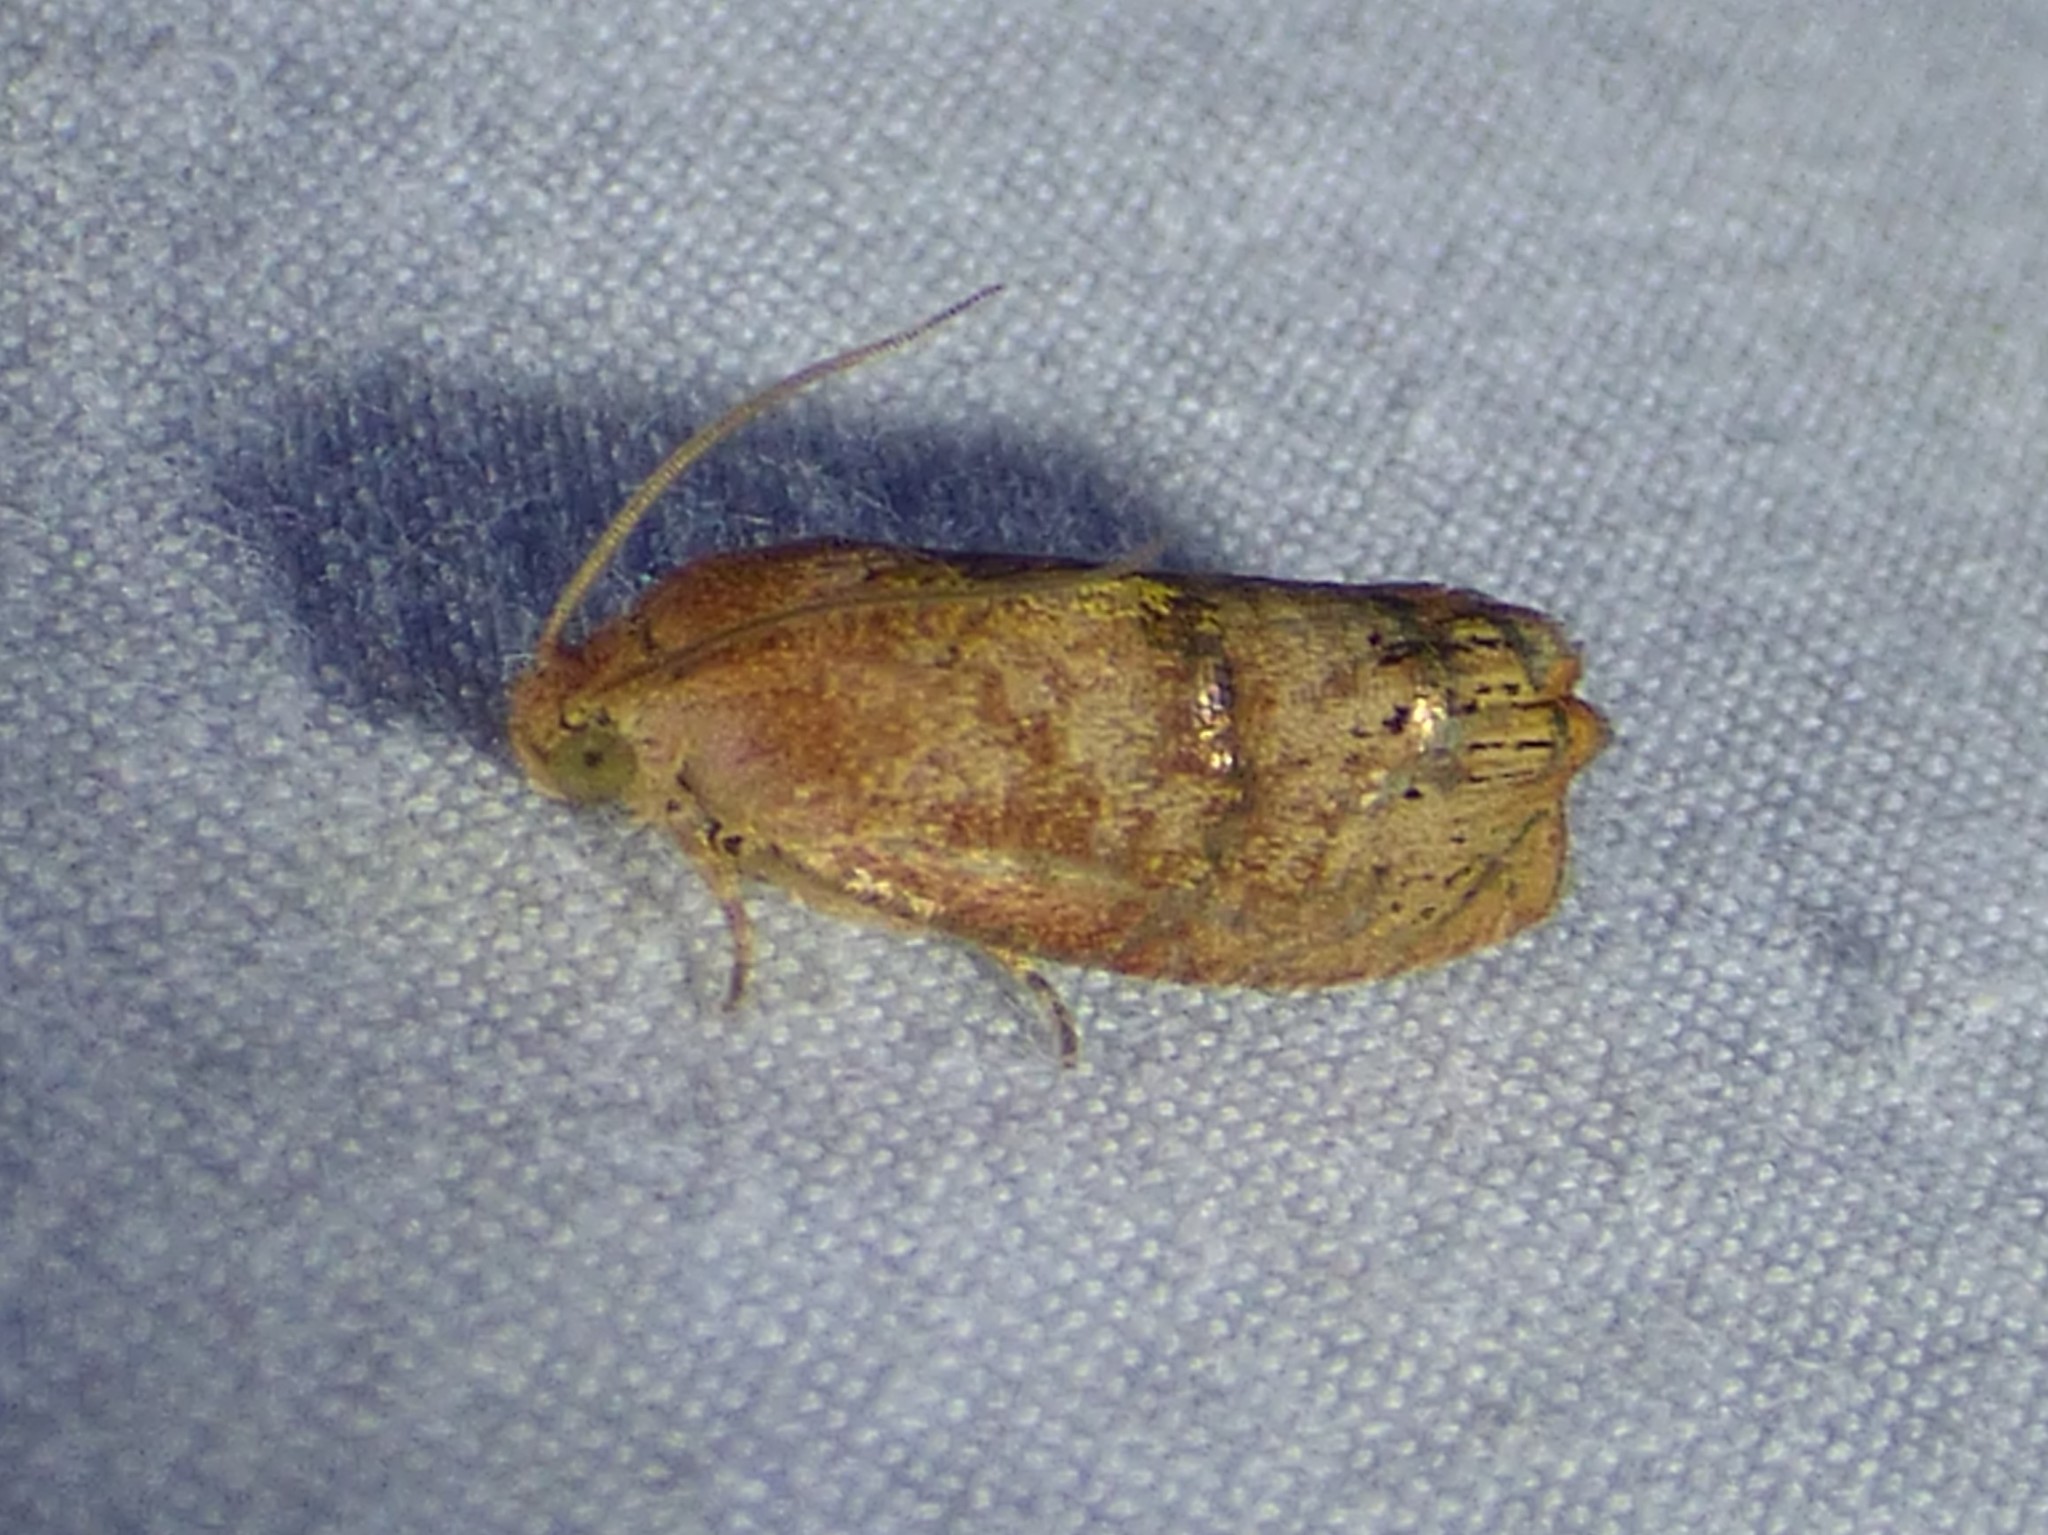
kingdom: Animalia
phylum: Arthropoda
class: Insecta
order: Lepidoptera
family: Tortricidae
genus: Cydia
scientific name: Cydia latiferreana
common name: Filbertworm moth
